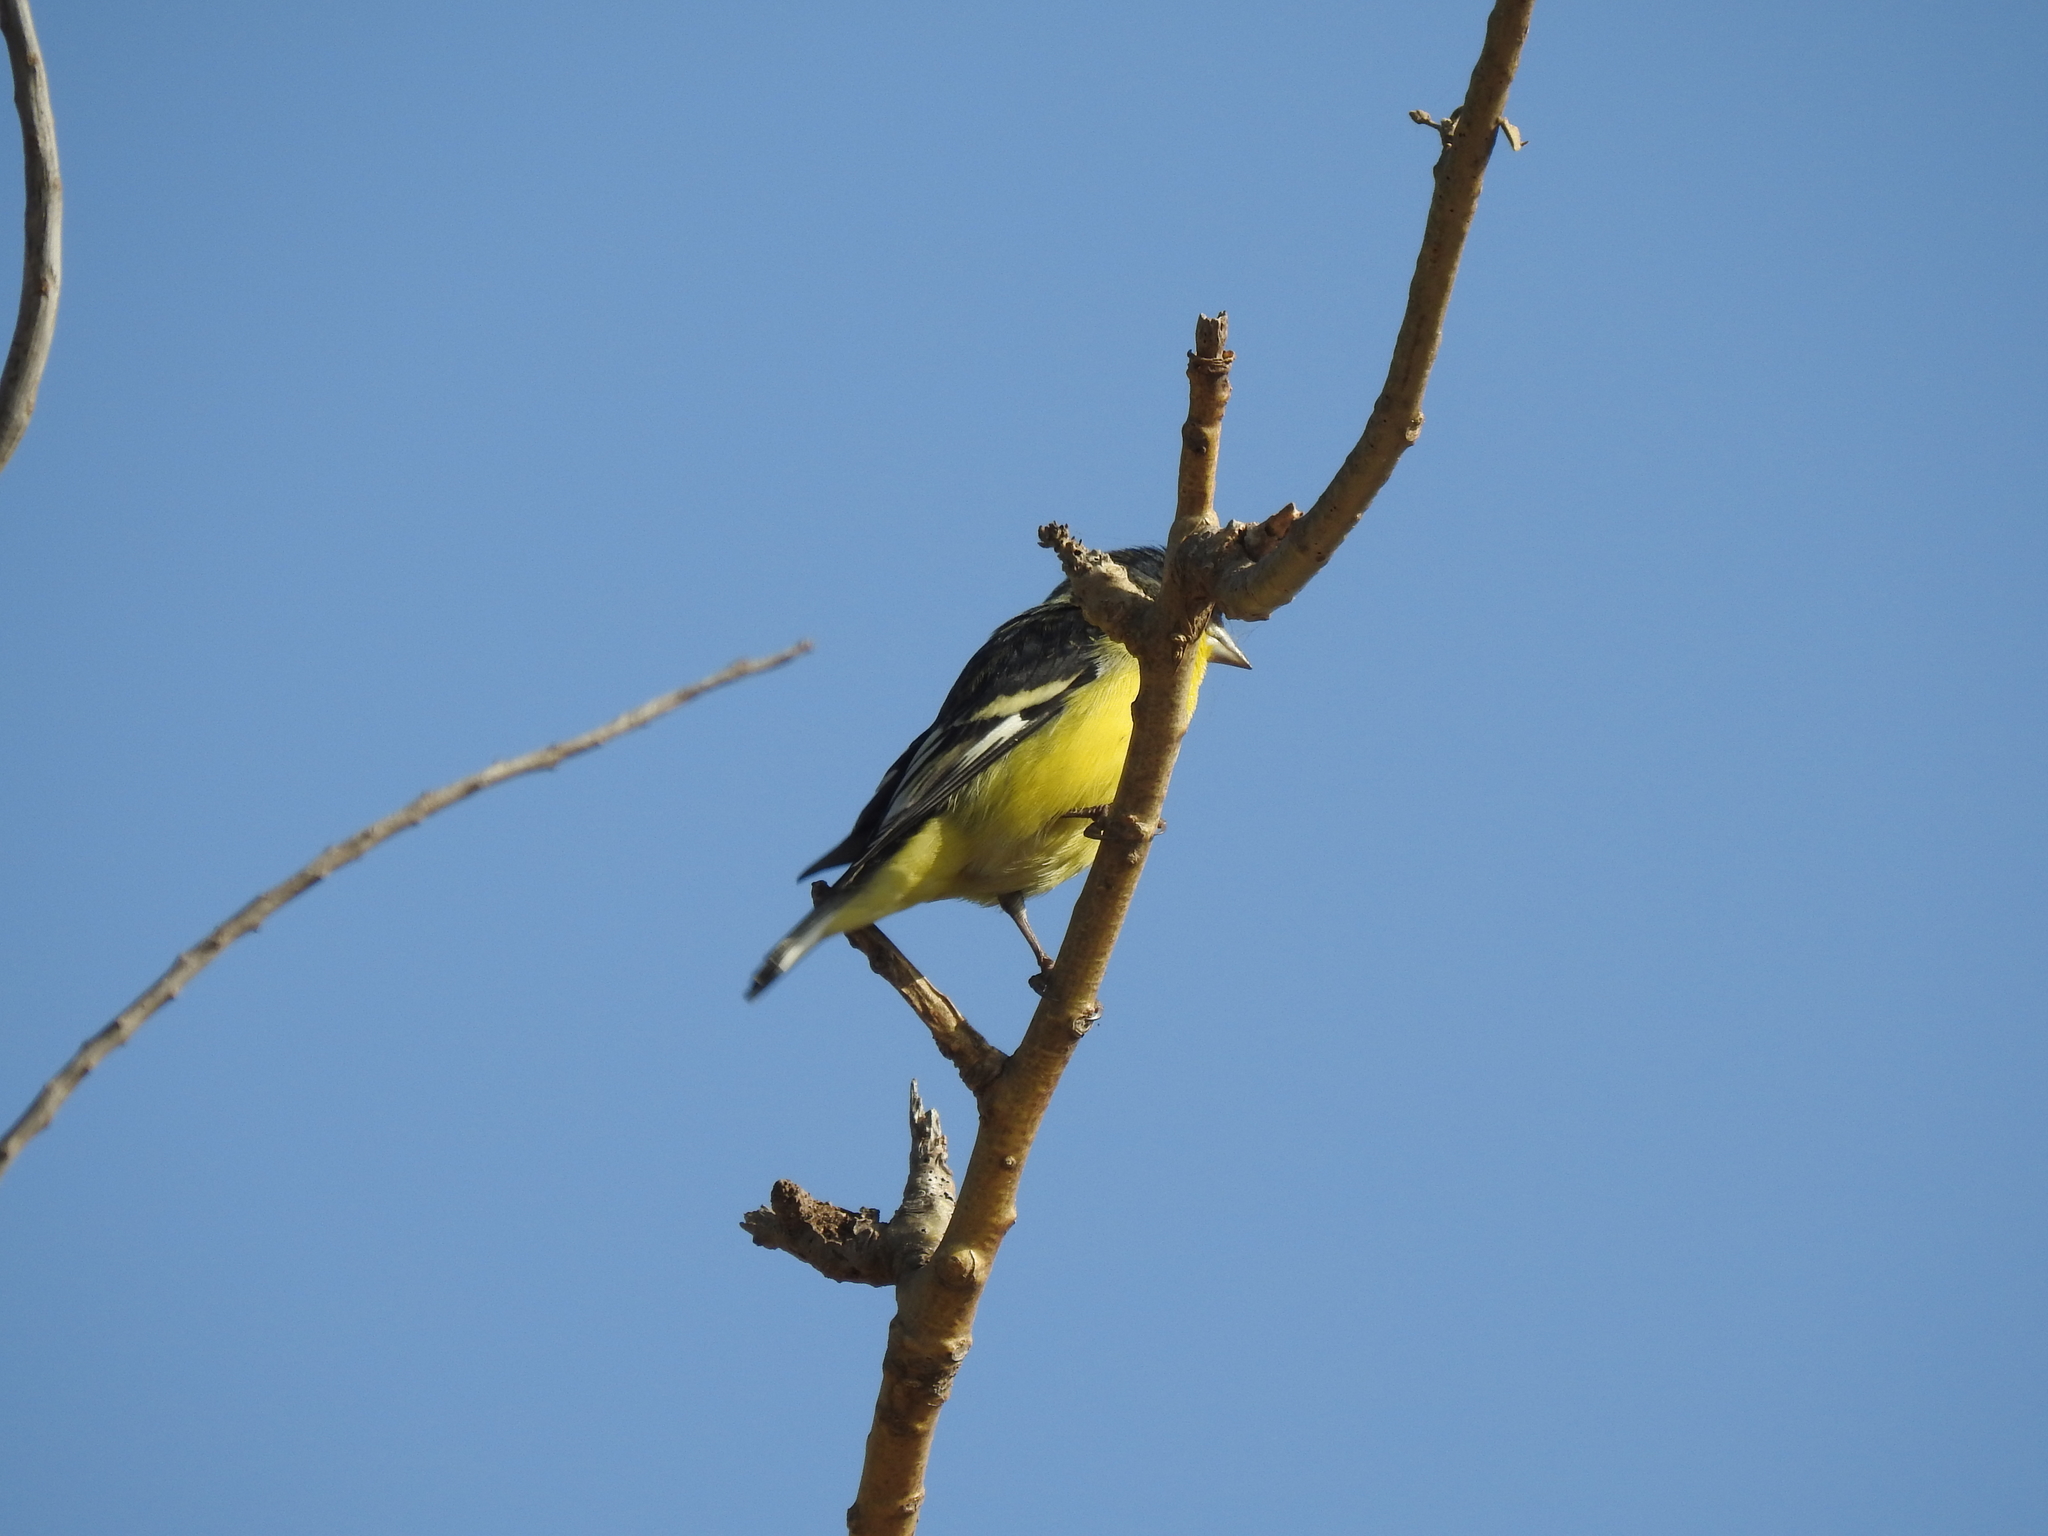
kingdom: Animalia
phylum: Chordata
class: Aves
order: Passeriformes
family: Fringillidae
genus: Spinus
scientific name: Spinus psaltria
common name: Lesser goldfinch
